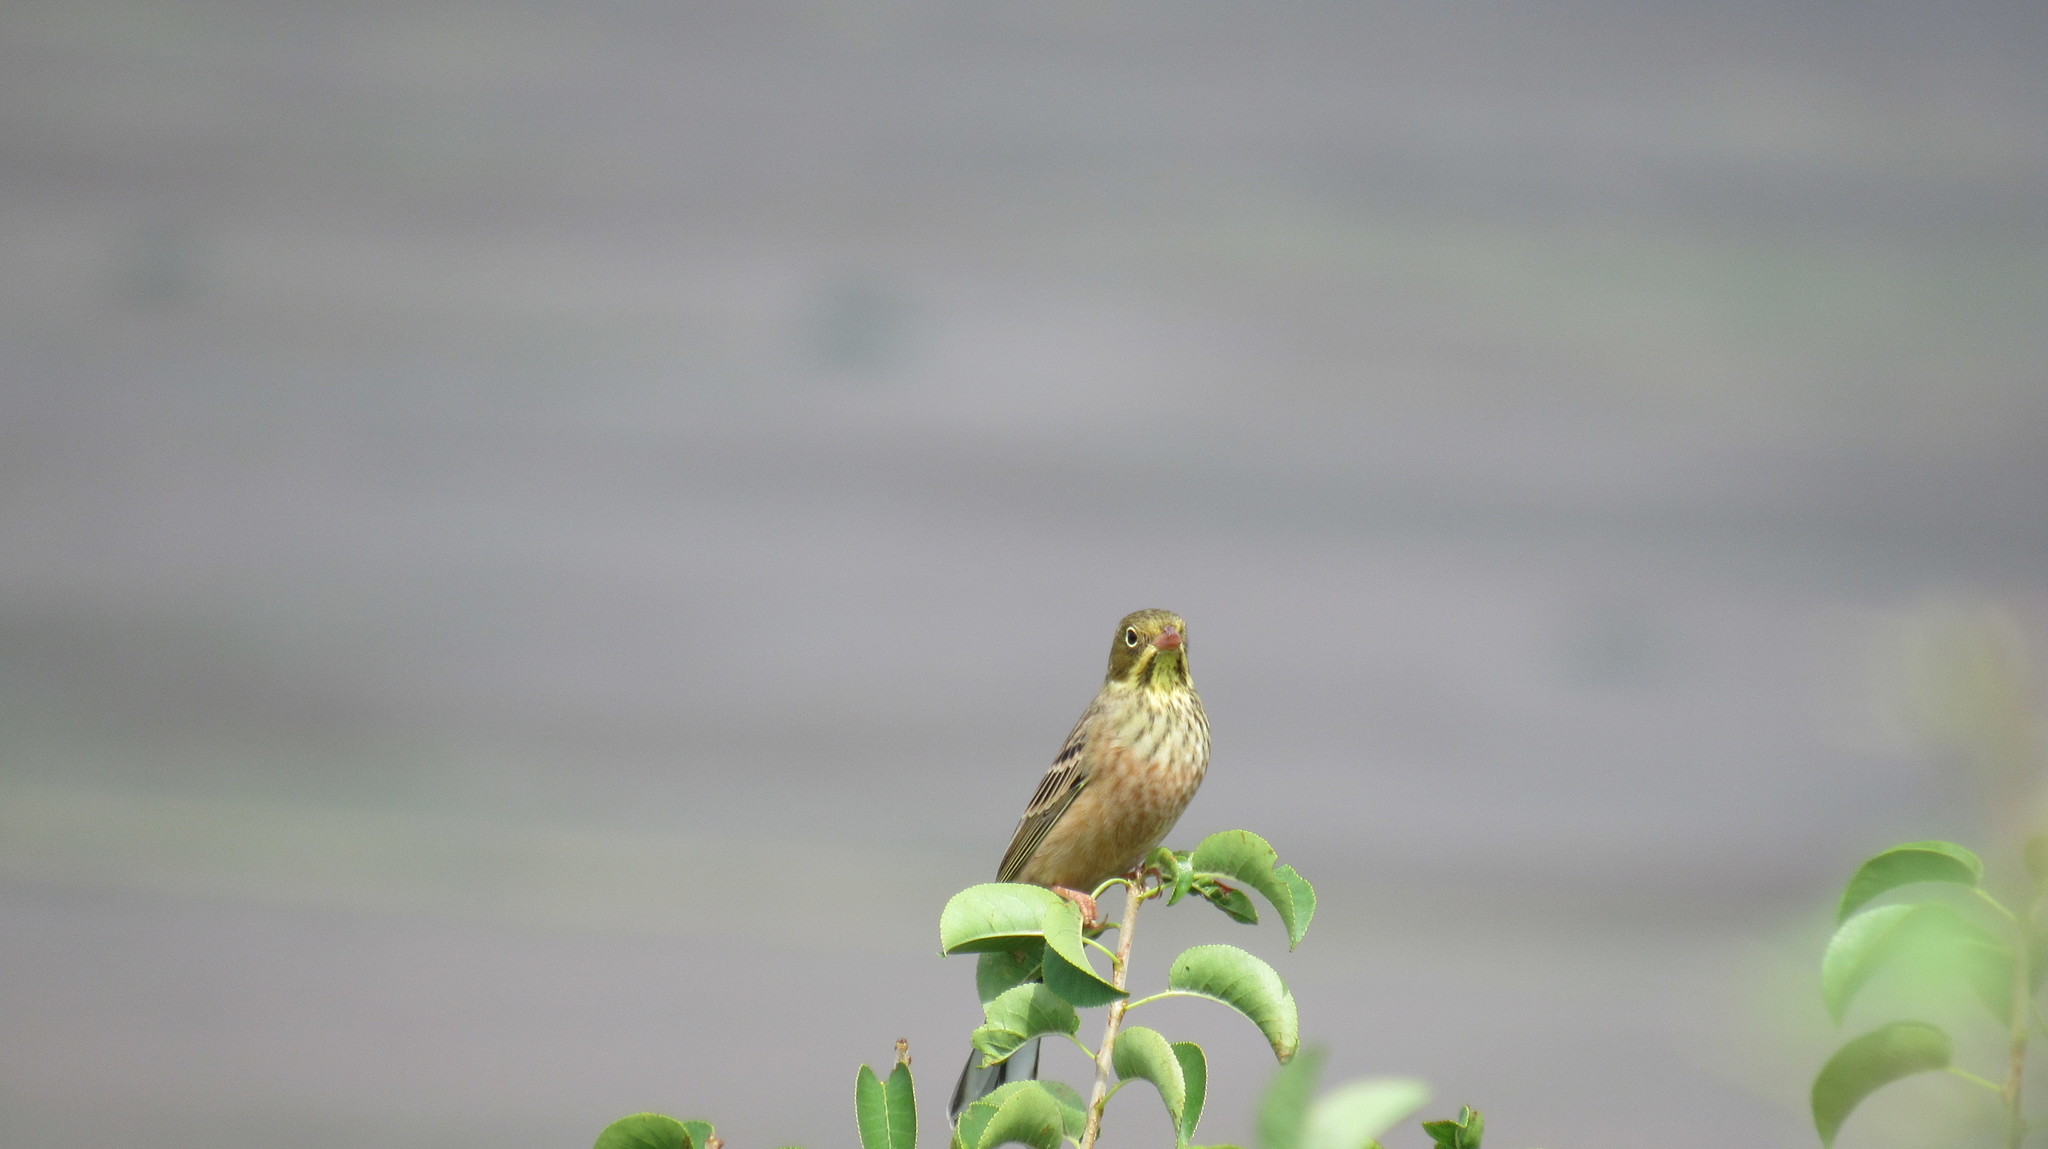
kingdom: Animalia
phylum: Chordata
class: Aves
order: Passeriformes
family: Emberizidae
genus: Emberiza
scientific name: Emberiza hortulana
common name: Ortolan bunting
